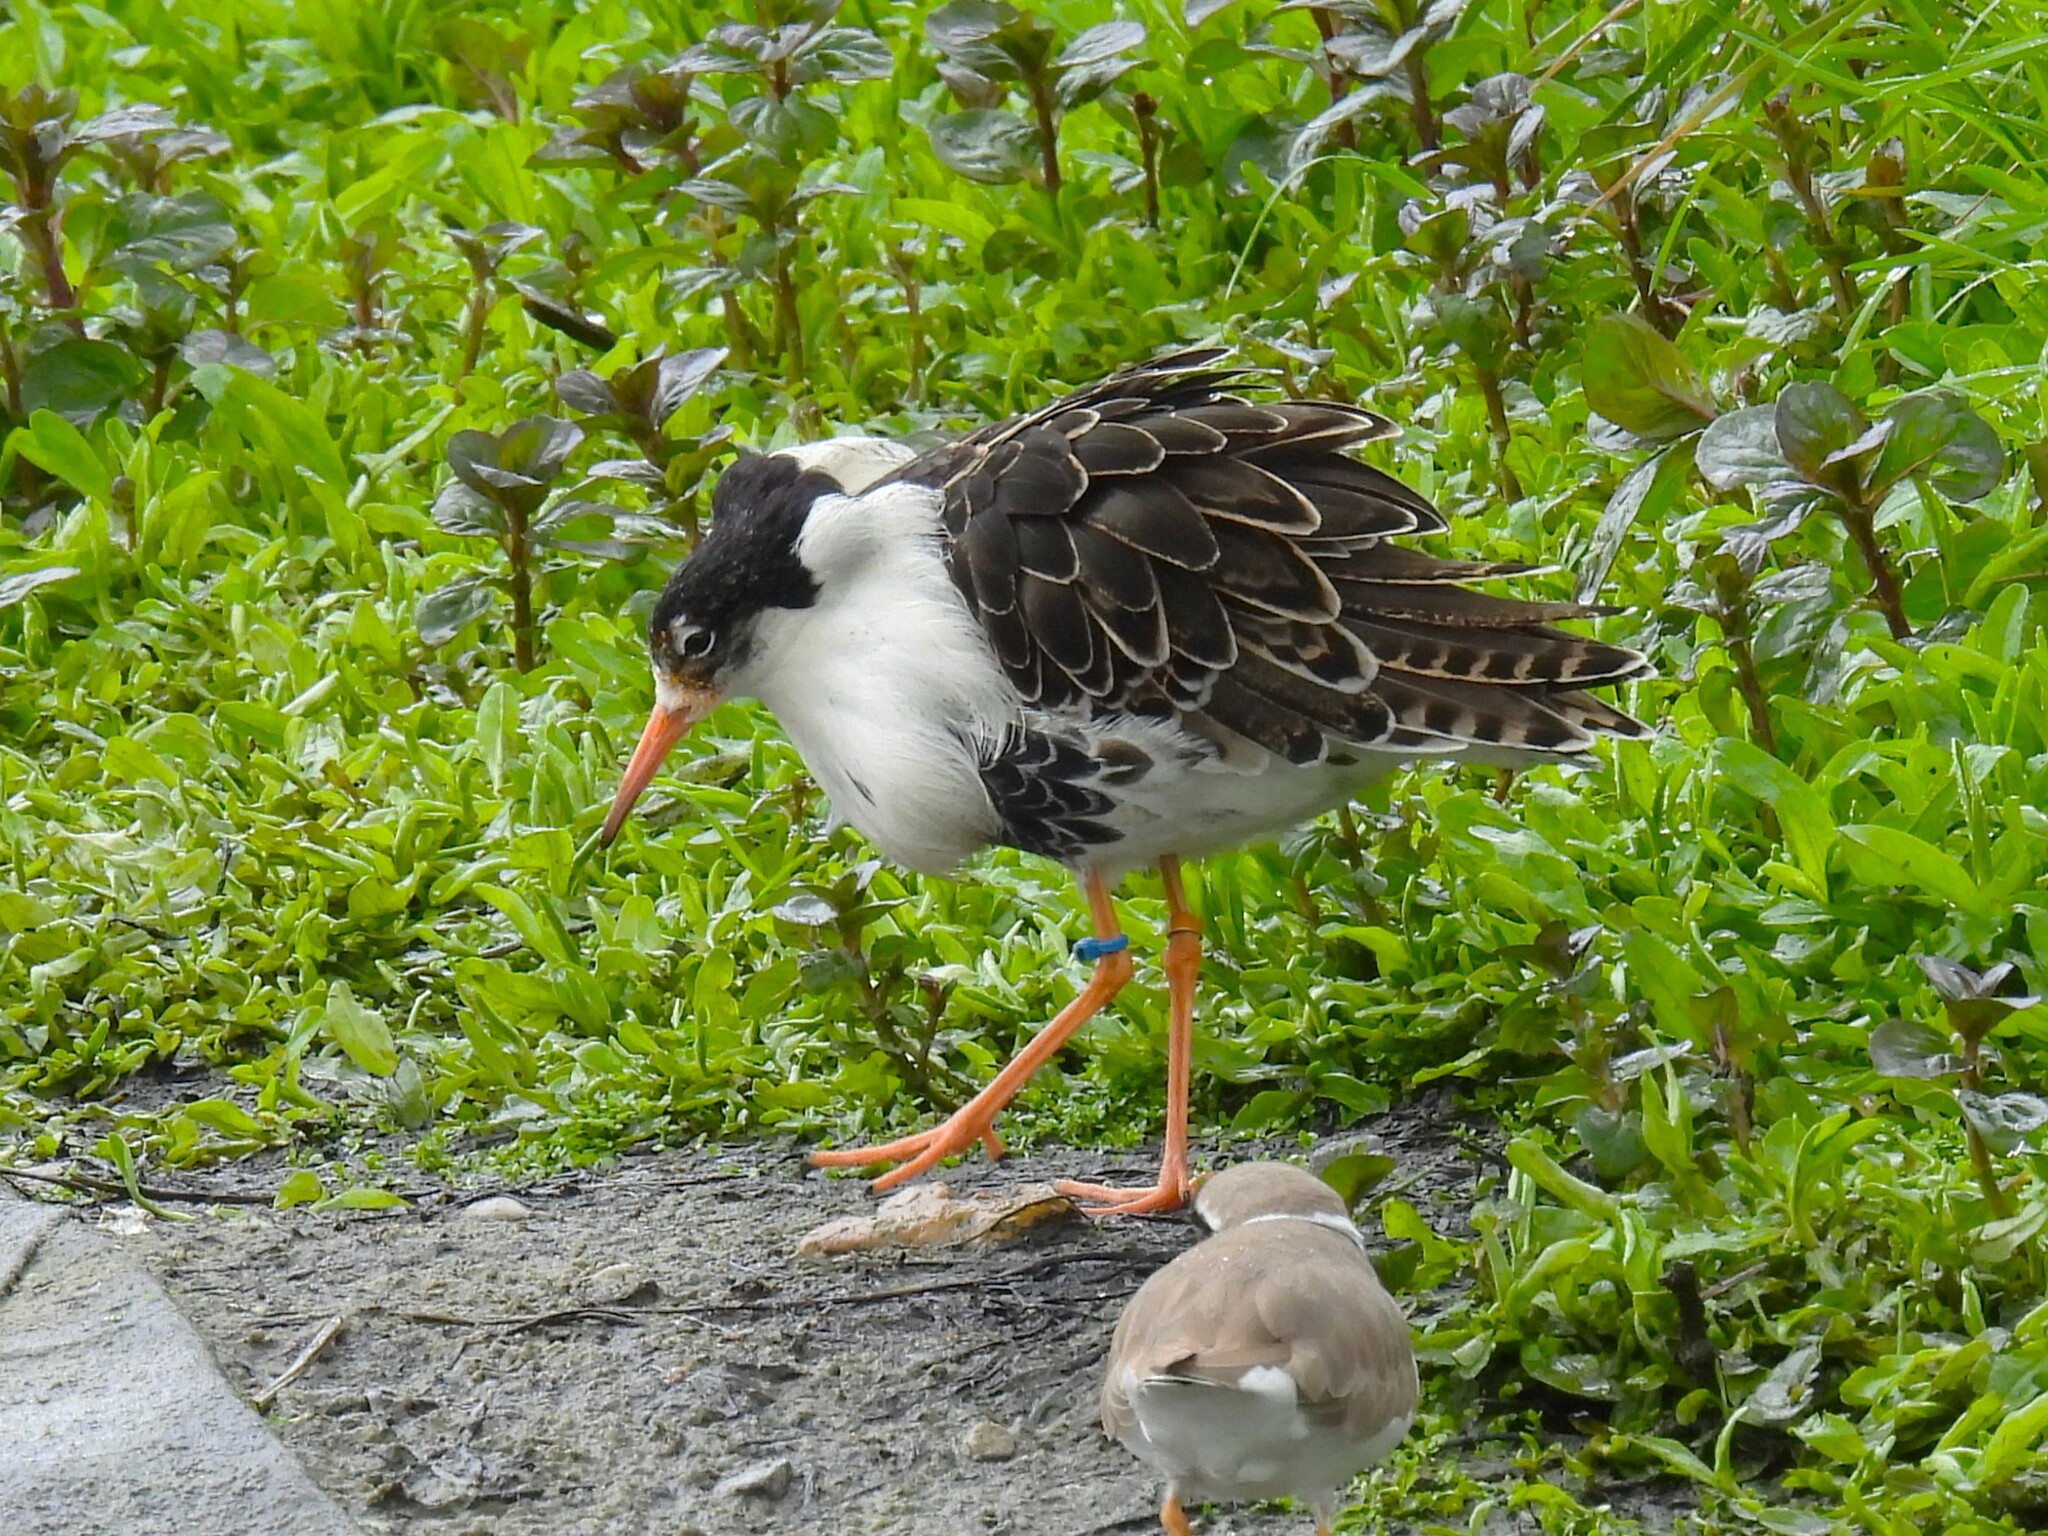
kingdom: Animalia
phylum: Chordata
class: Aves
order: Charadriiformes
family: Scolopacidae
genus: Calidris
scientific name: Calidris pugnax
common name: Ruff
